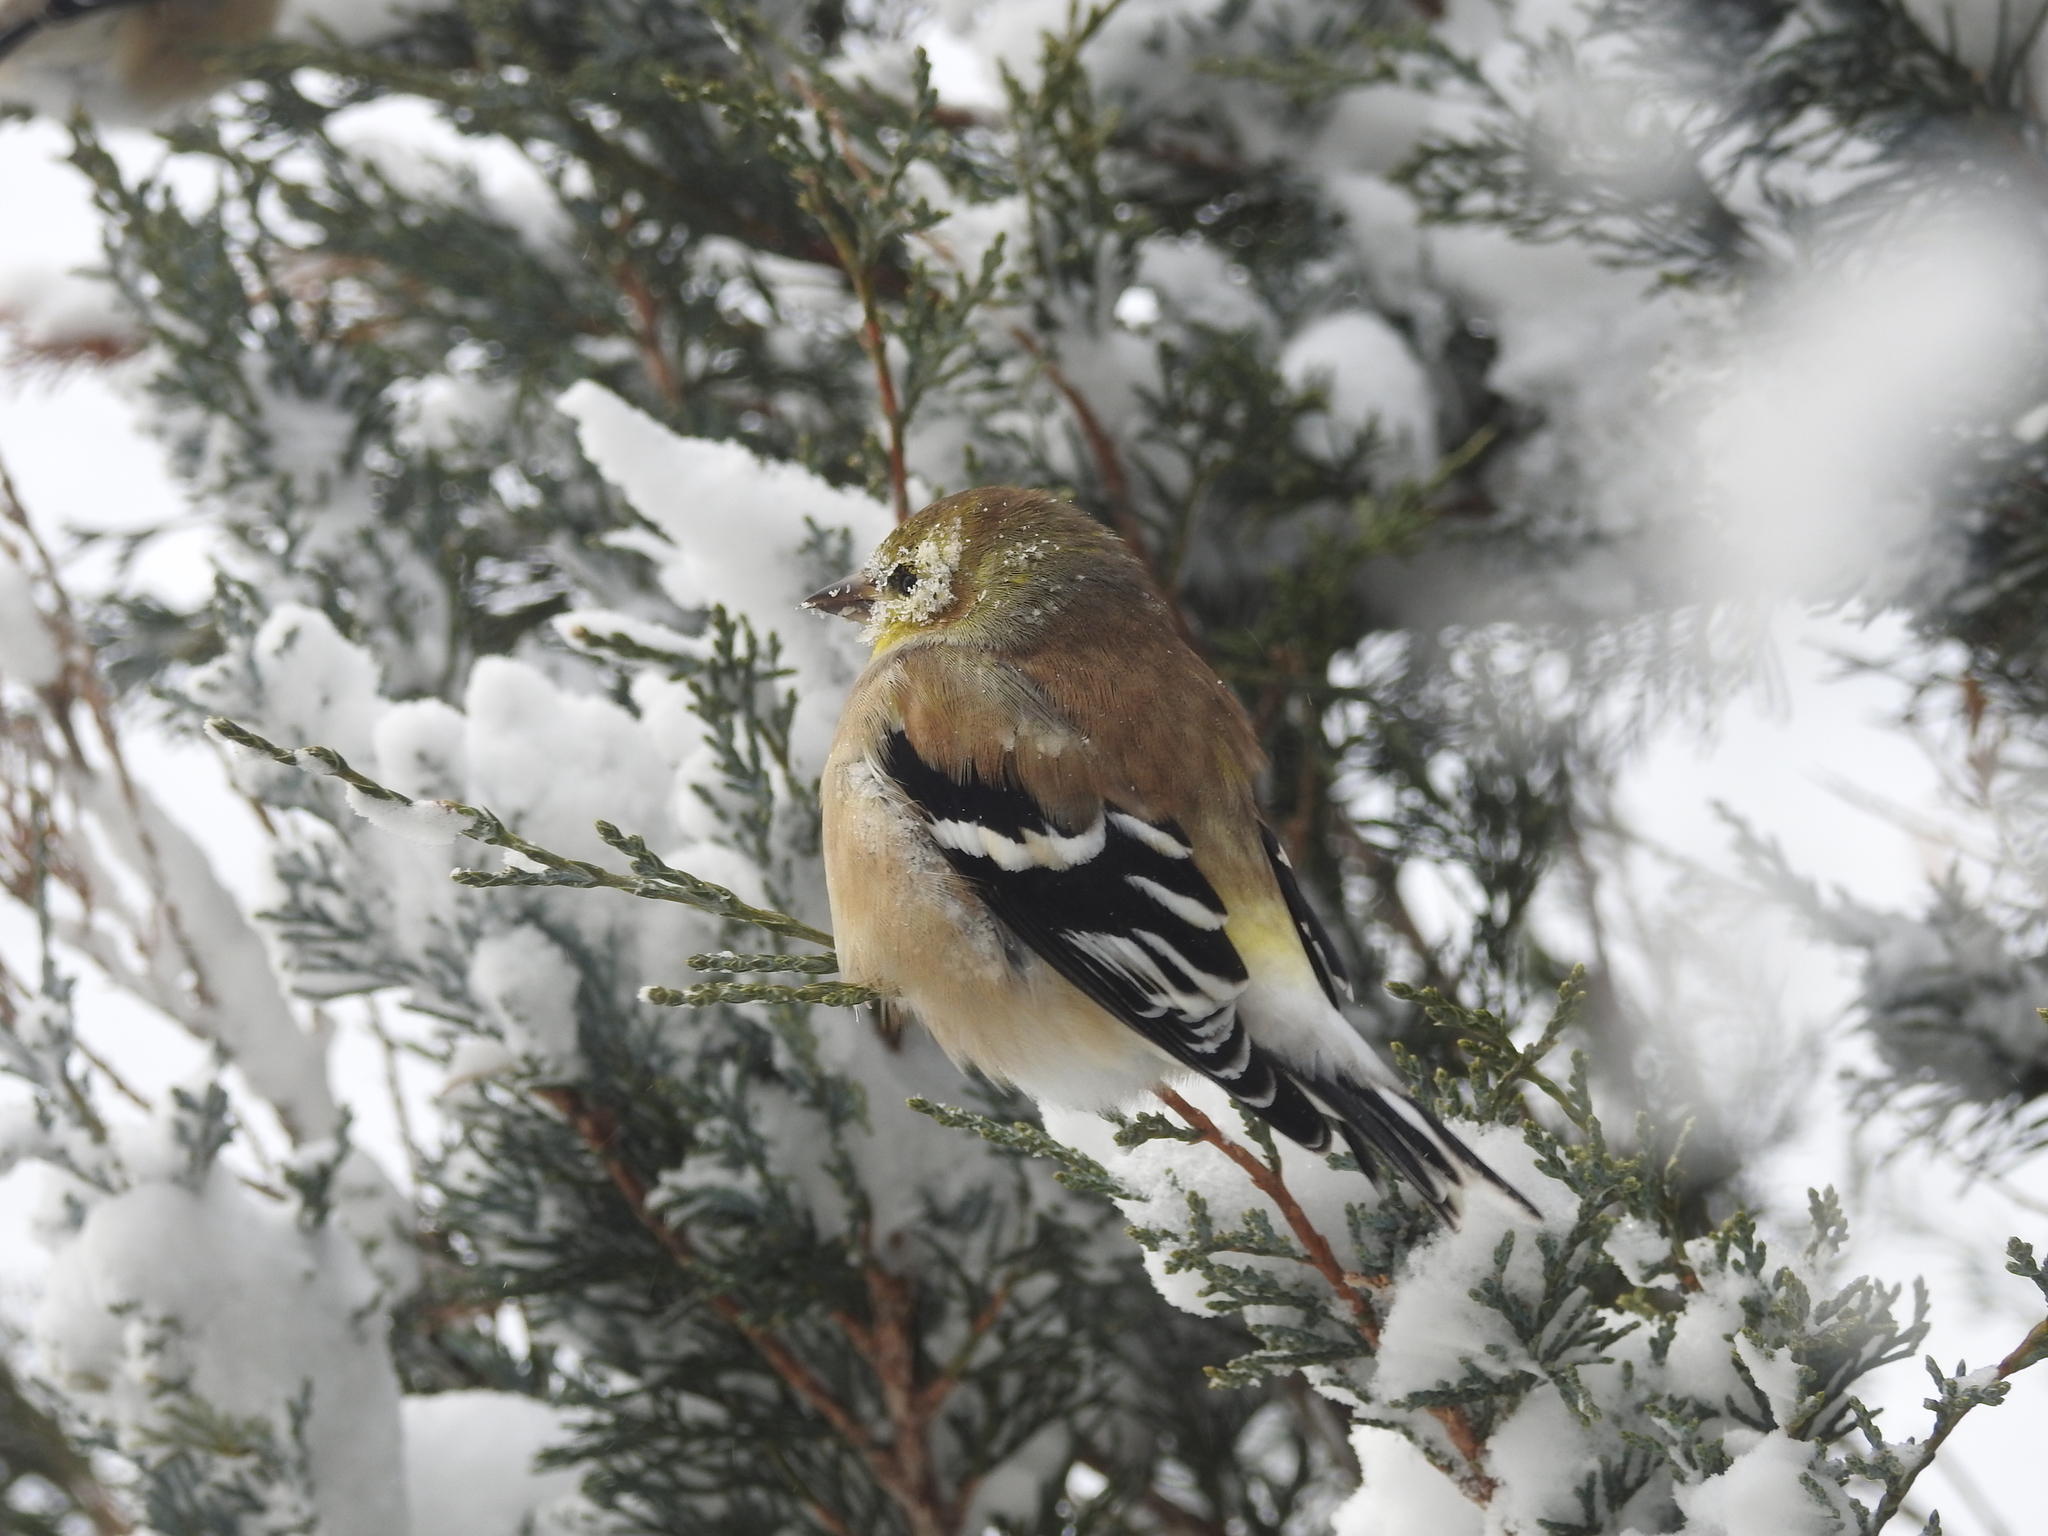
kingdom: Animalia
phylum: Chordata
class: Aves
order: Passeriformes
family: Fringillidae
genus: Spinus
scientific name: Spinus tristis
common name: American goldfinch
